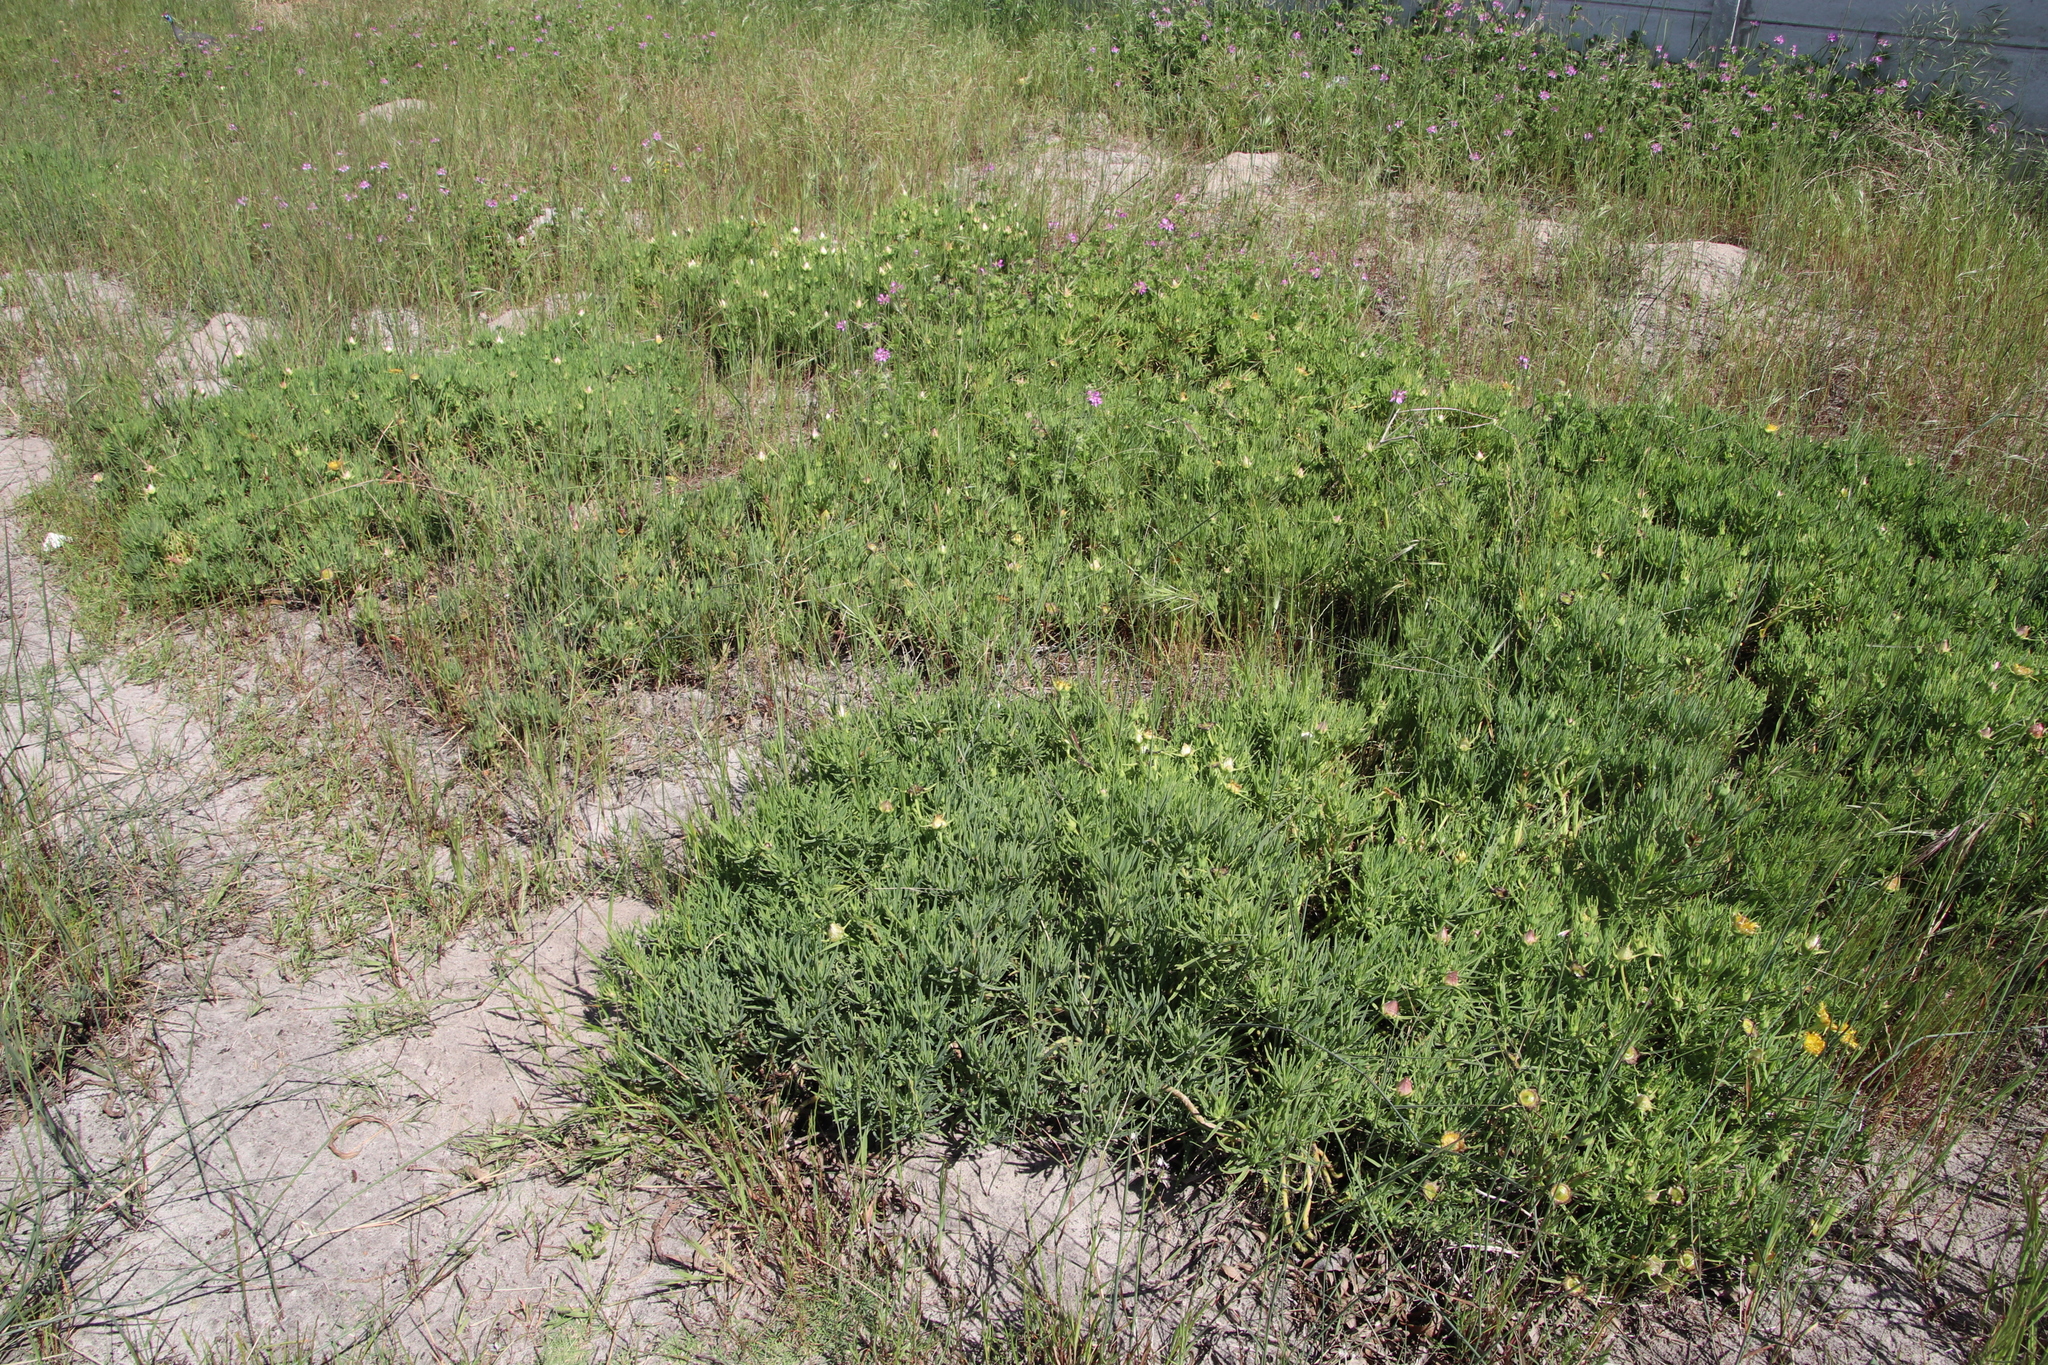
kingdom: Plantae
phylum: Tracheophyta
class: Magnoliopsida
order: Caryophyllales
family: Aizoaceae
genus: Conicosia
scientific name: Conicosia pugioniformis
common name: Narrow-leaved iceplant
